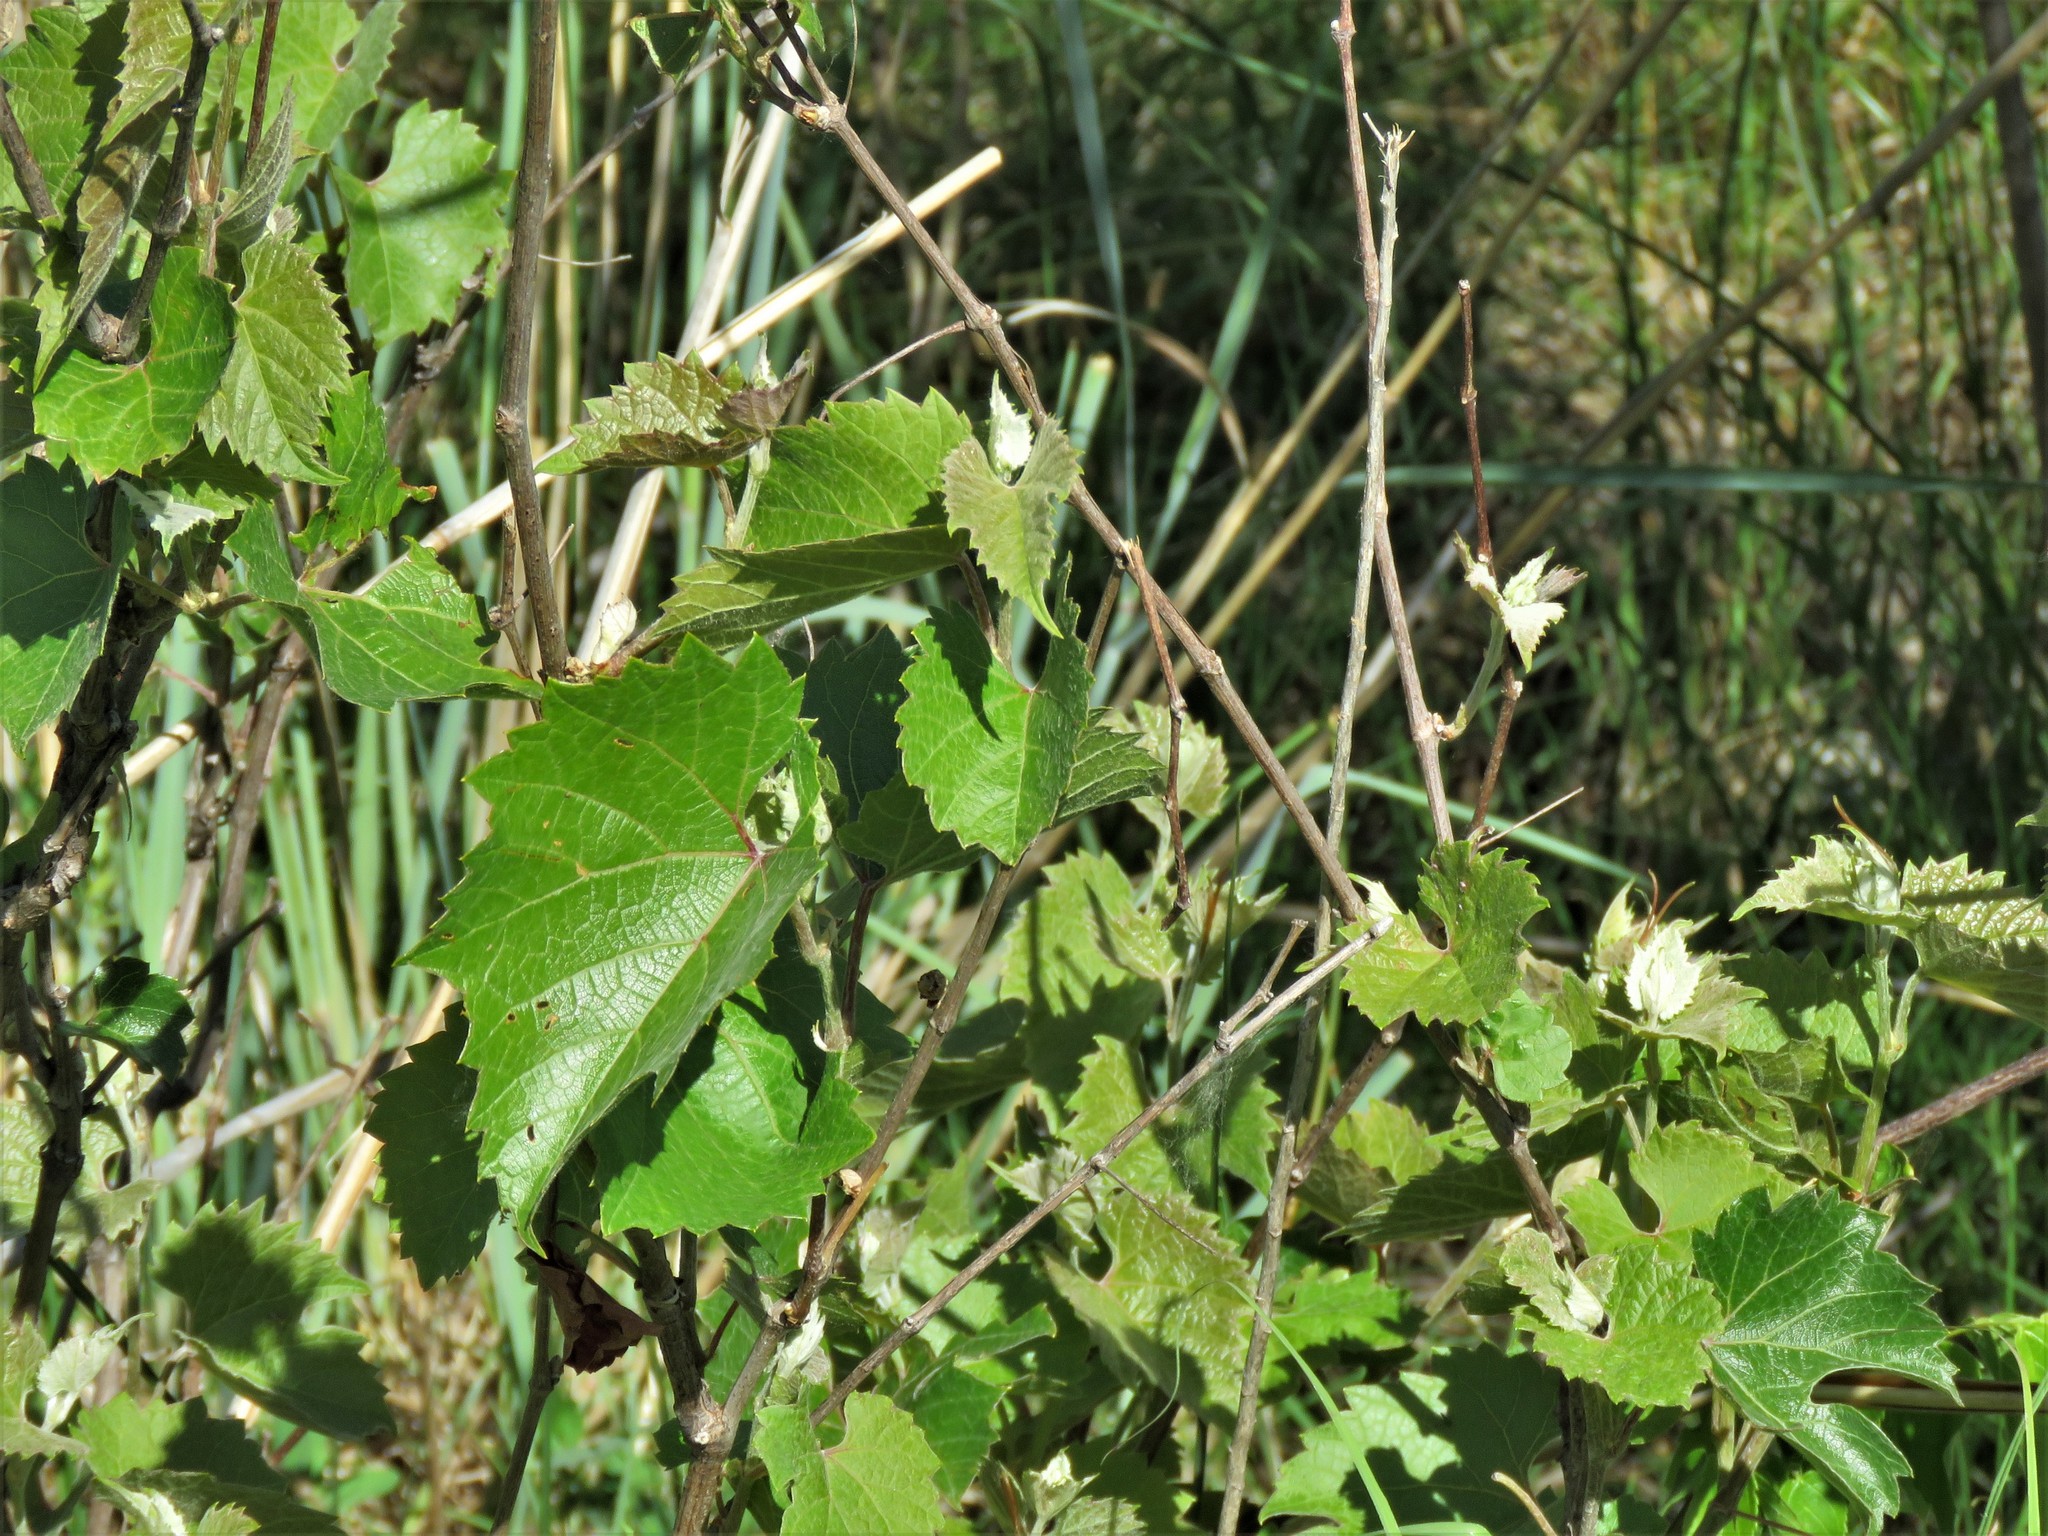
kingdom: Plantae
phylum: Tracheophyta
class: Magnoliopsida
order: Vitales
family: Vitaceae
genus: Vitis
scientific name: Vitis acerifolia
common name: Bush grape
